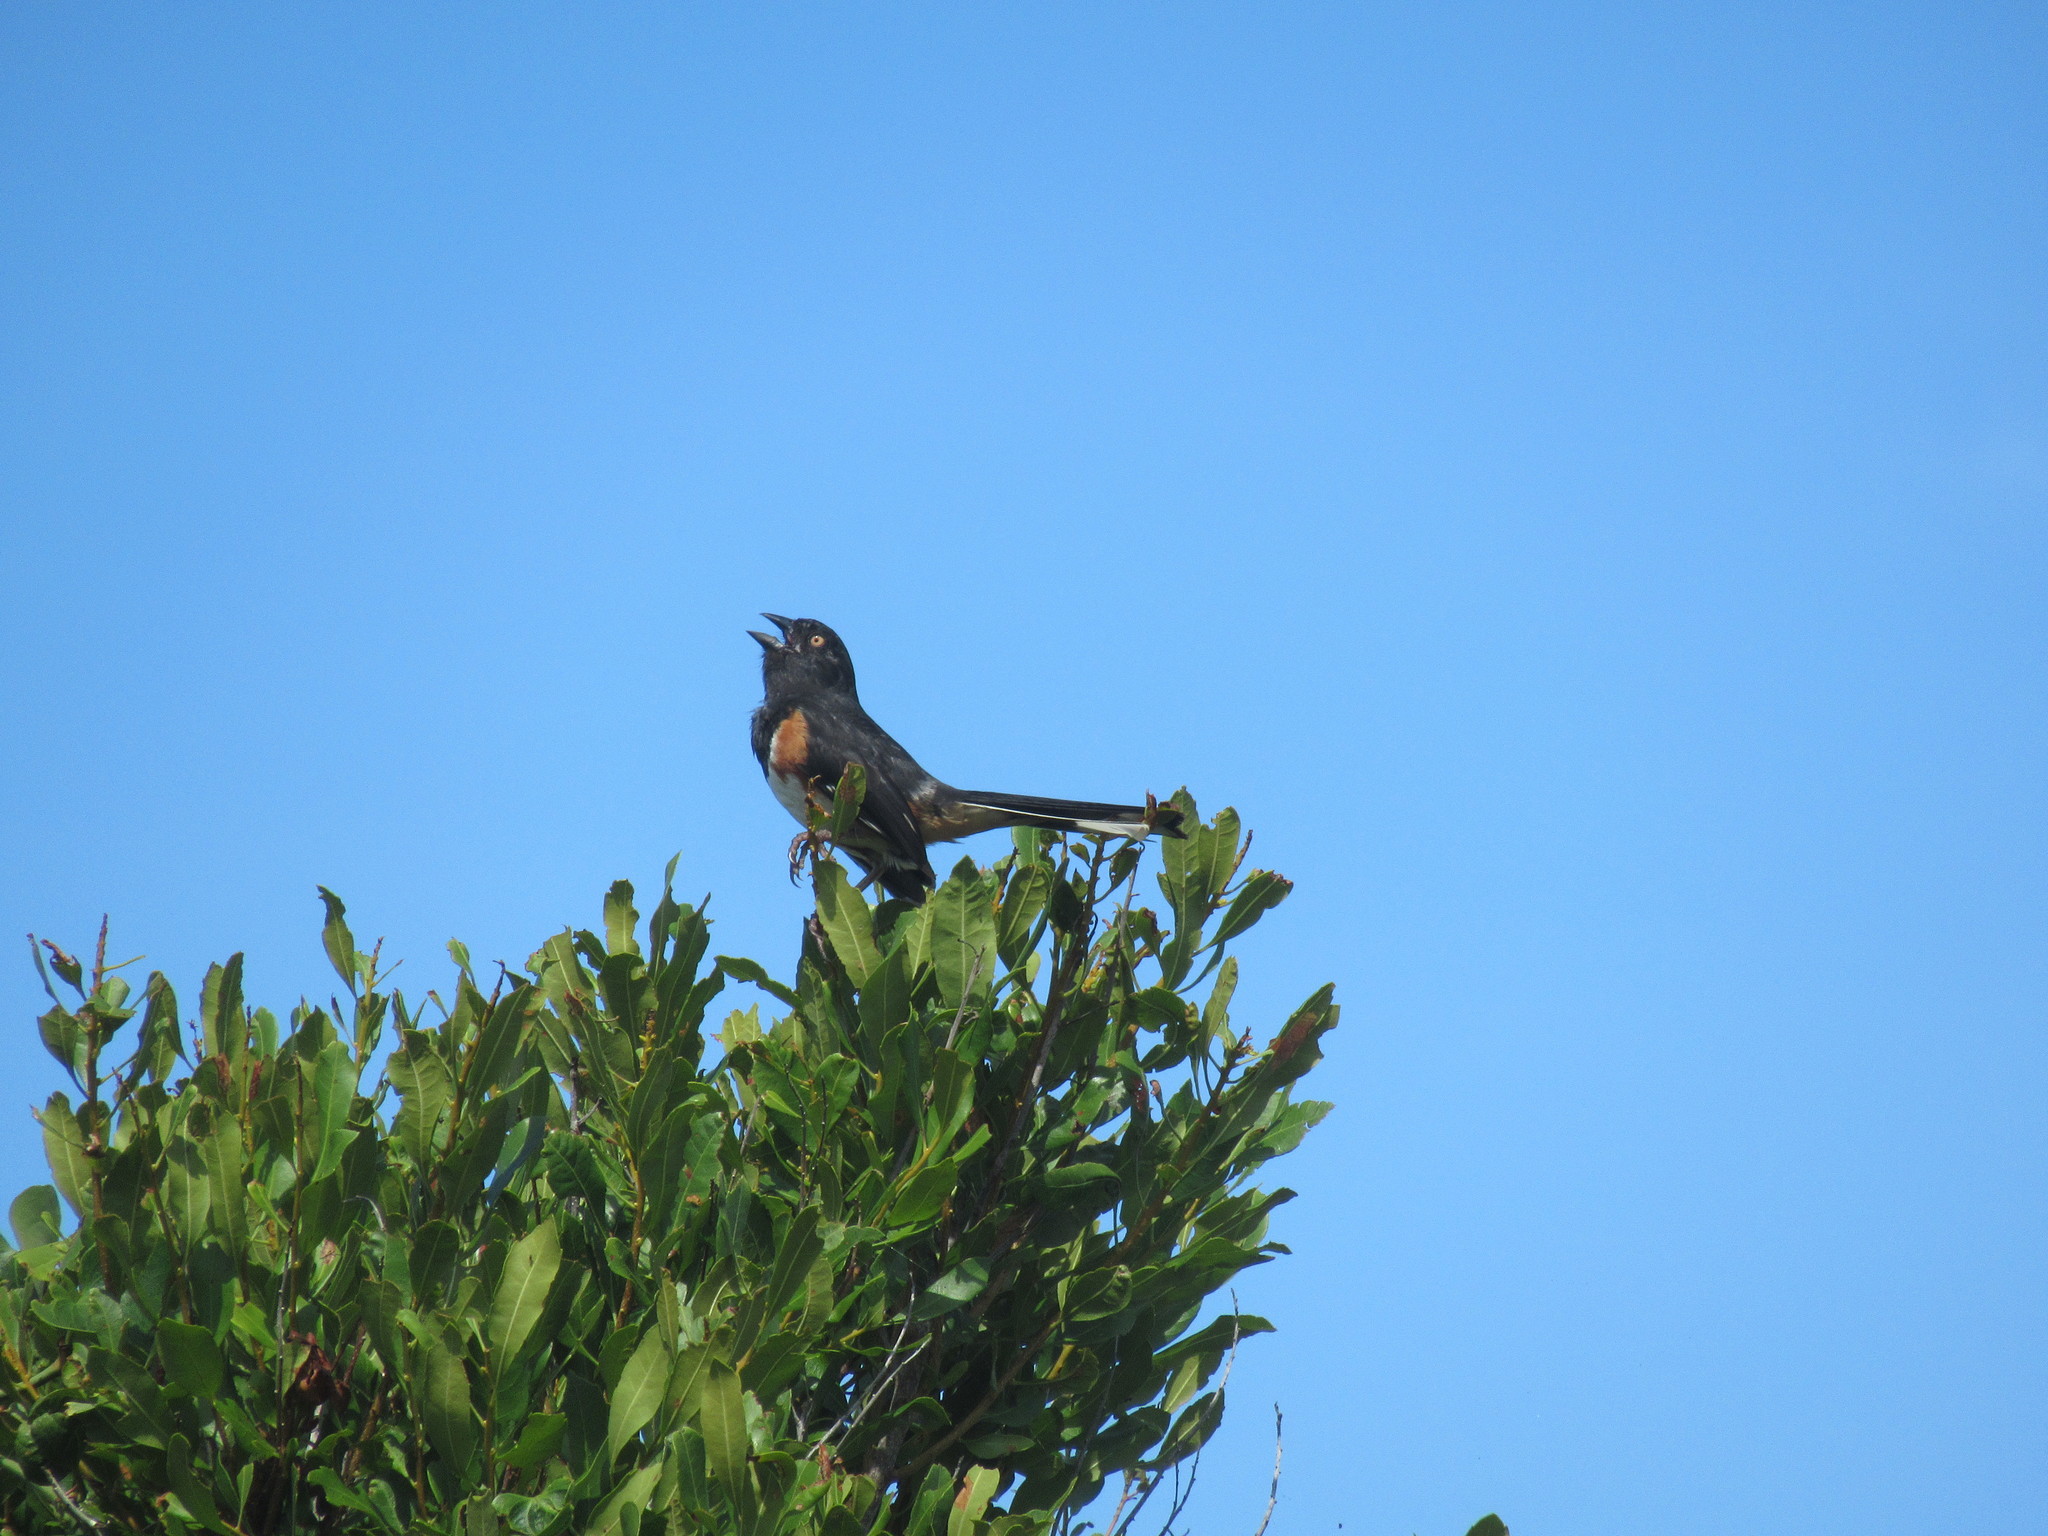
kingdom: Animalia
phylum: Chordata
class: Aves
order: Passeriformes
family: Passerellidae
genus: Pipilo
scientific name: Pipilo erythrophthalmus
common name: Eastern towhee
